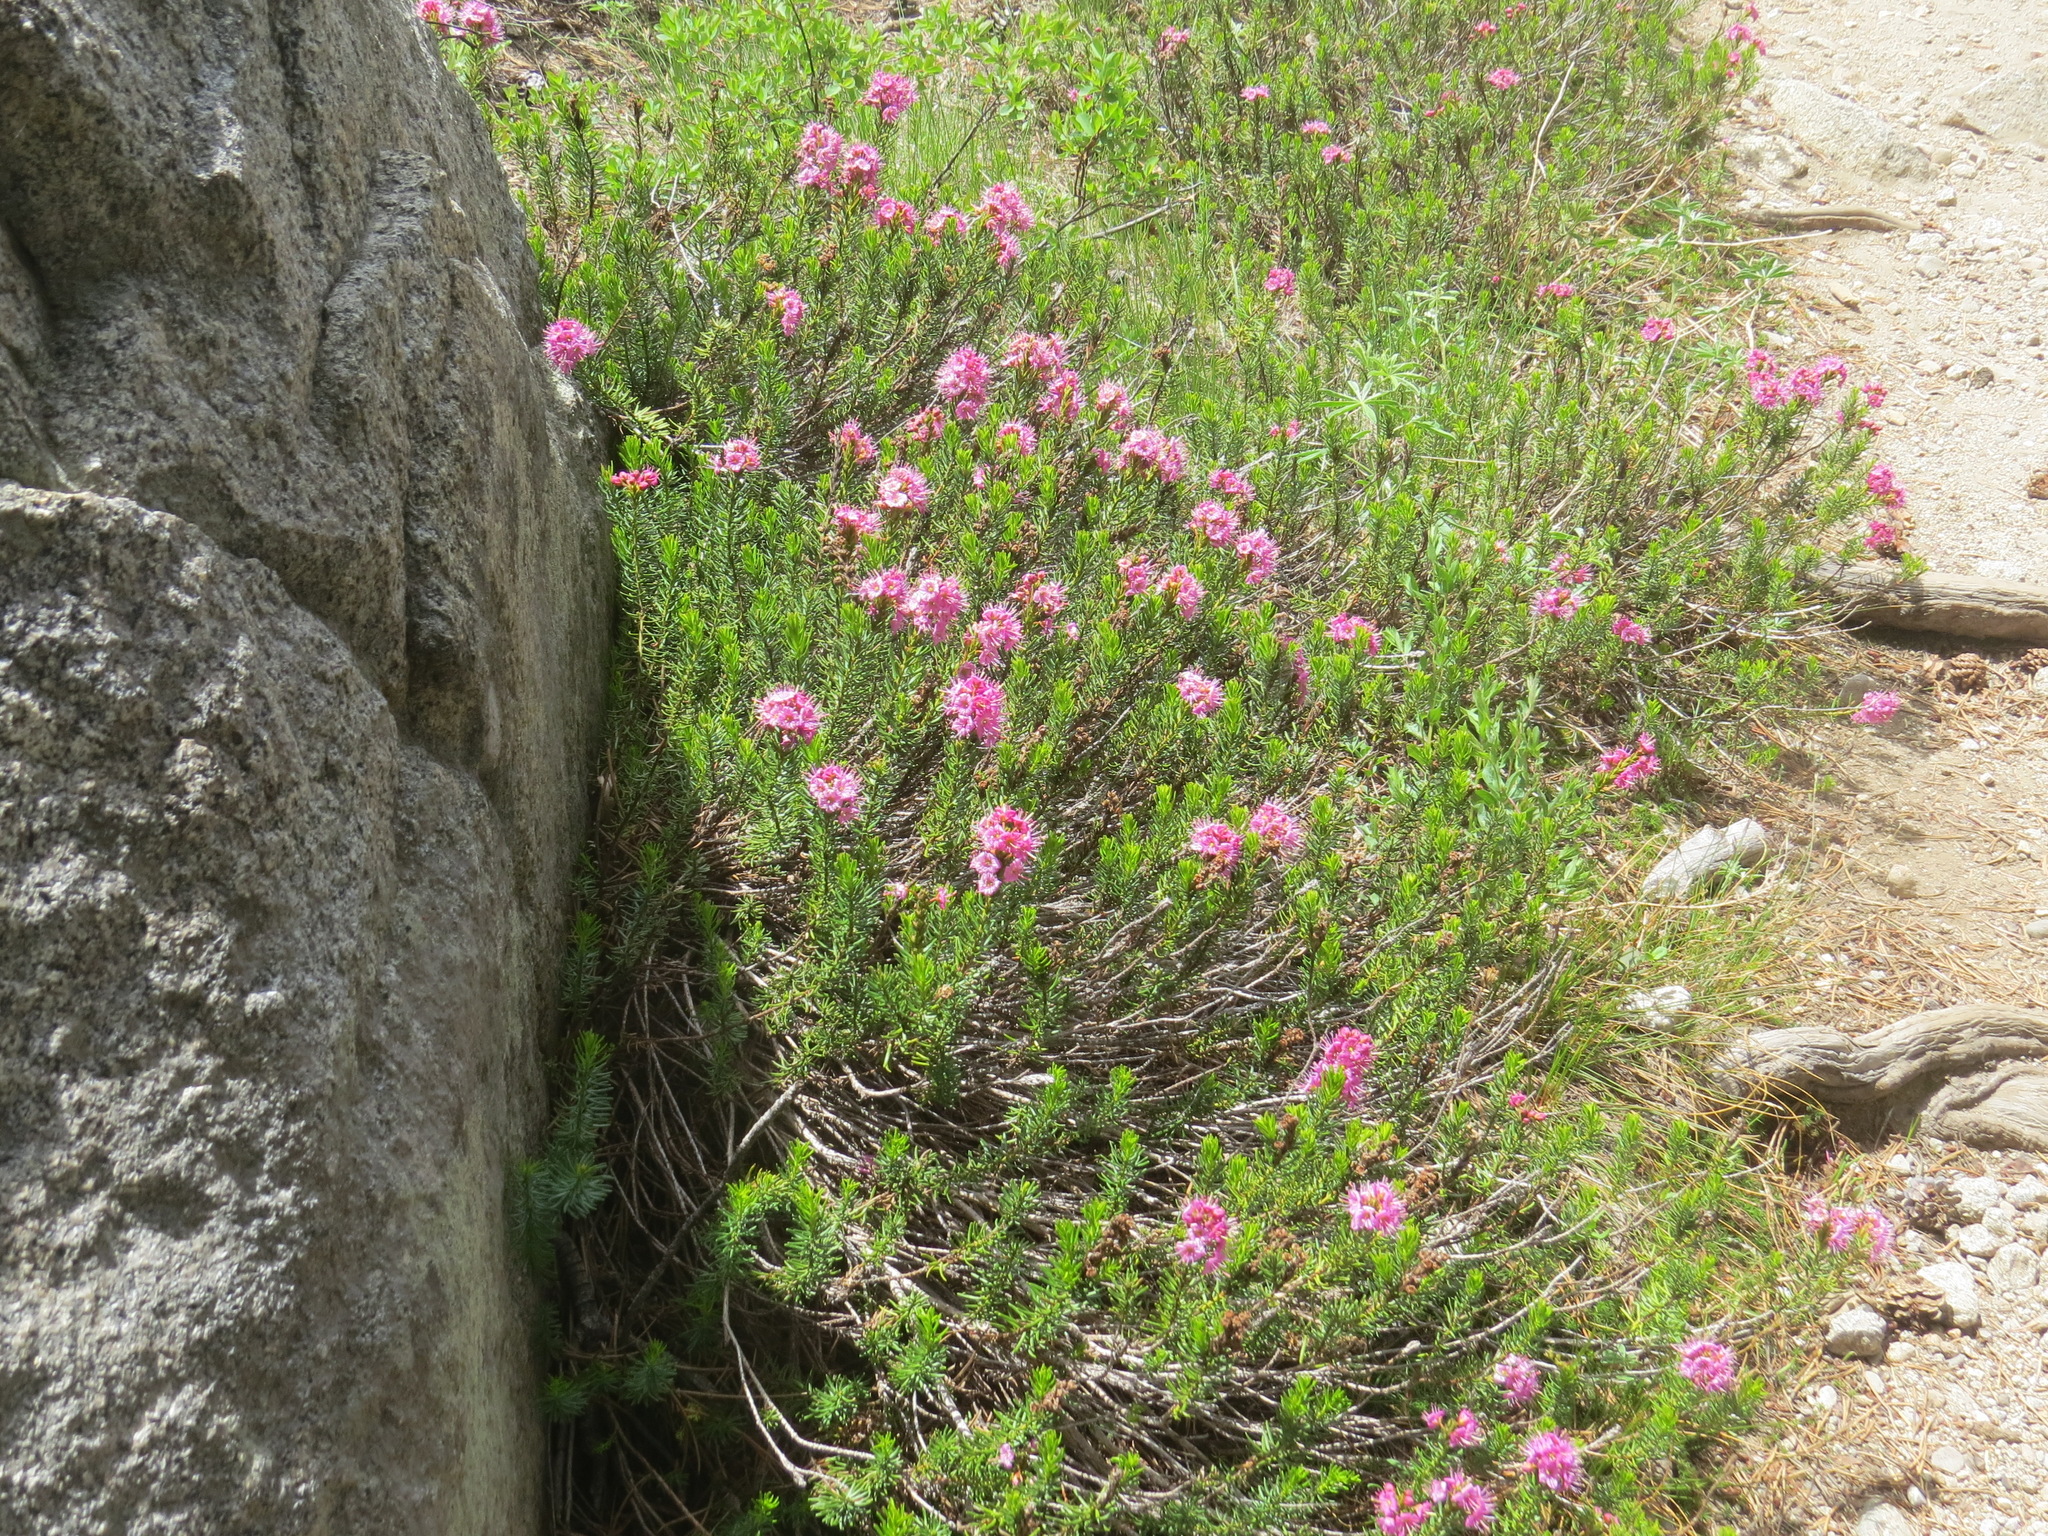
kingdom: Plantae
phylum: Tracheophyta
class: Magnoliopsida
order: Ericales
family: Ericaceae
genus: Phyllodoce
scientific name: Phyllodoce breweri
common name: Brewer's mountain-heather
